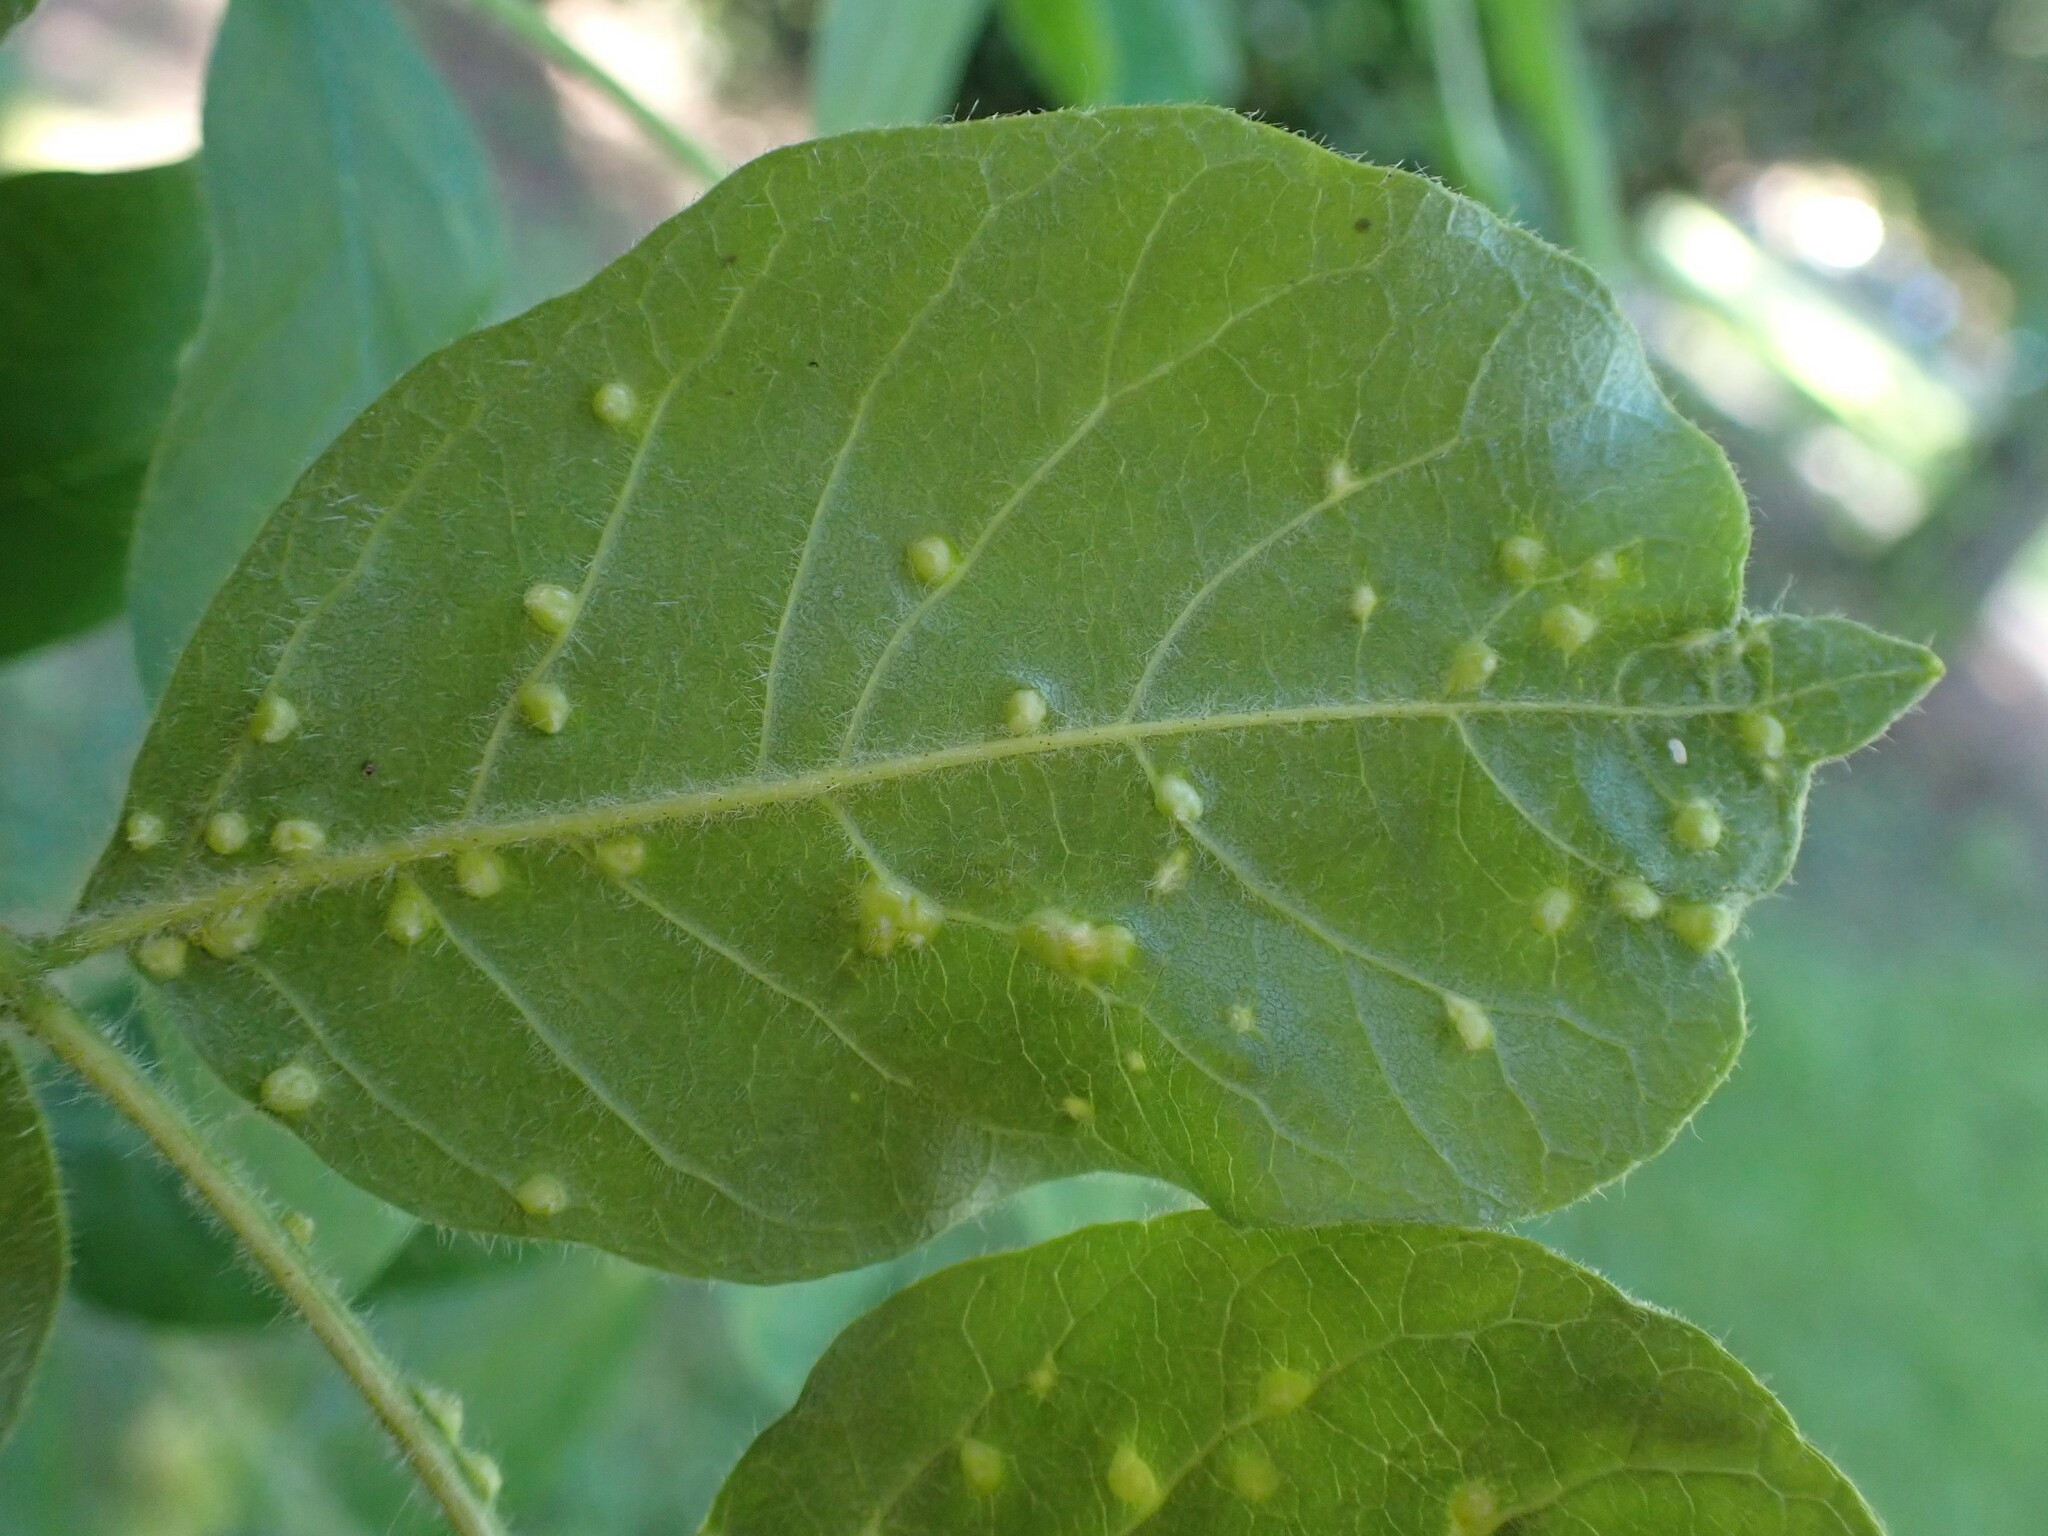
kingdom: Animalia
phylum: Arthropoda
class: Arachnida
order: Trombidiformes
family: Eriophyidae
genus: Aceria
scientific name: Aceria fraxinicola
